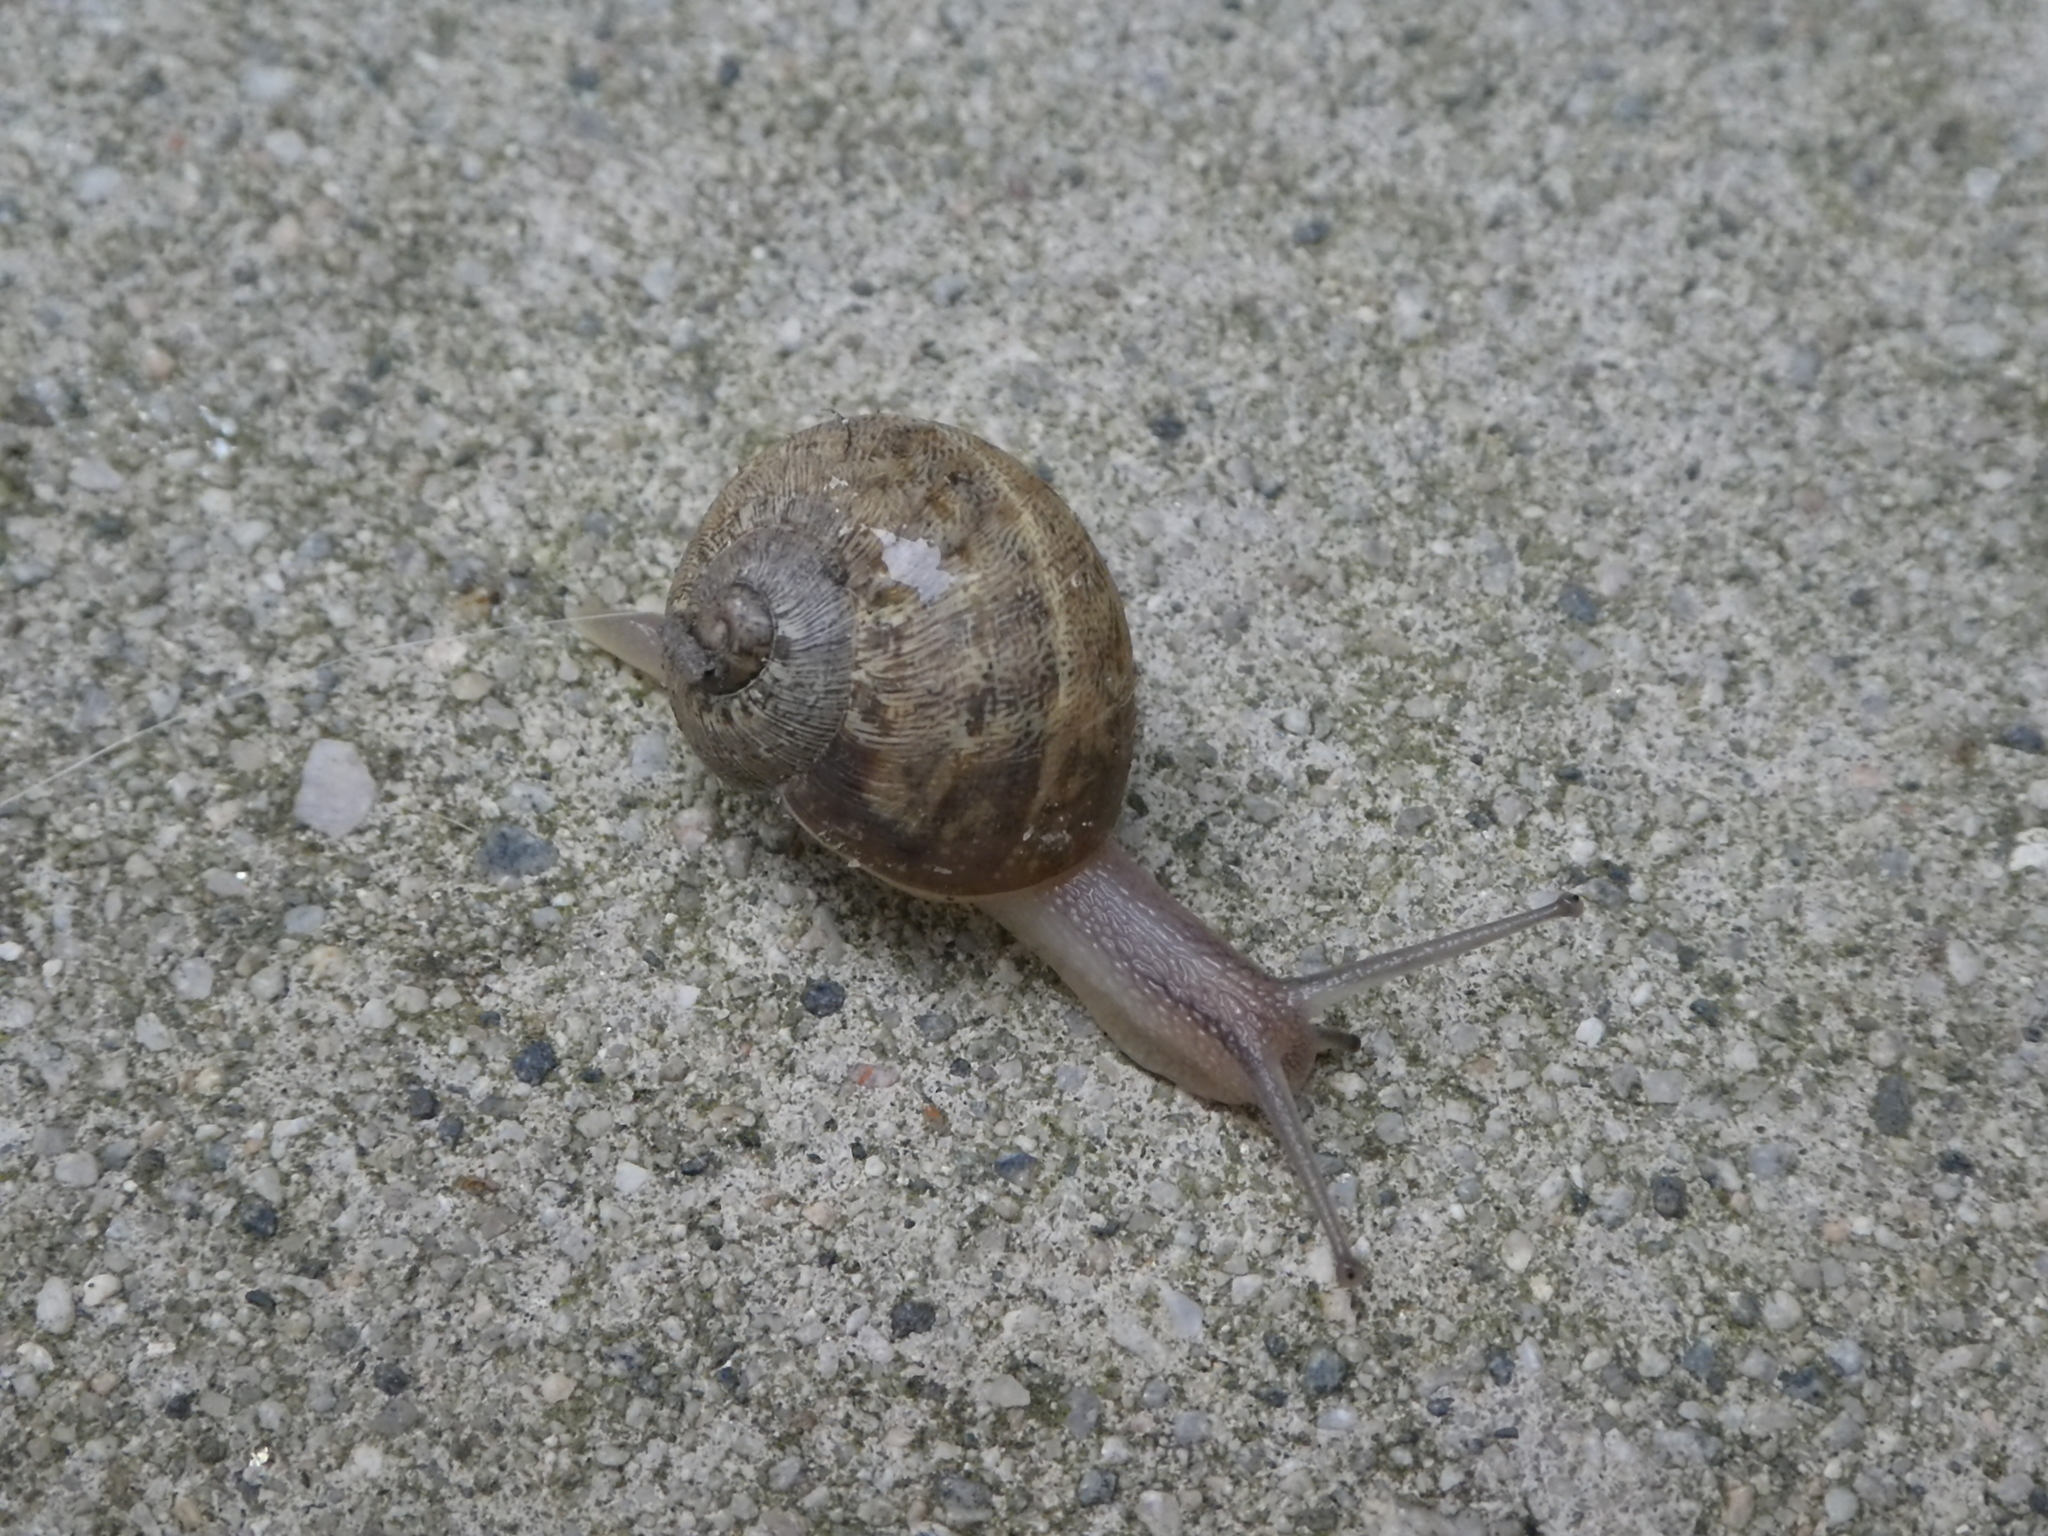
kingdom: Animalia
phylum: Mollusca
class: Gastropoda
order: Stylommatophora
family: Helicidae
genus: Cornu
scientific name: Cornu aspersum
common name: Brown garden snail
